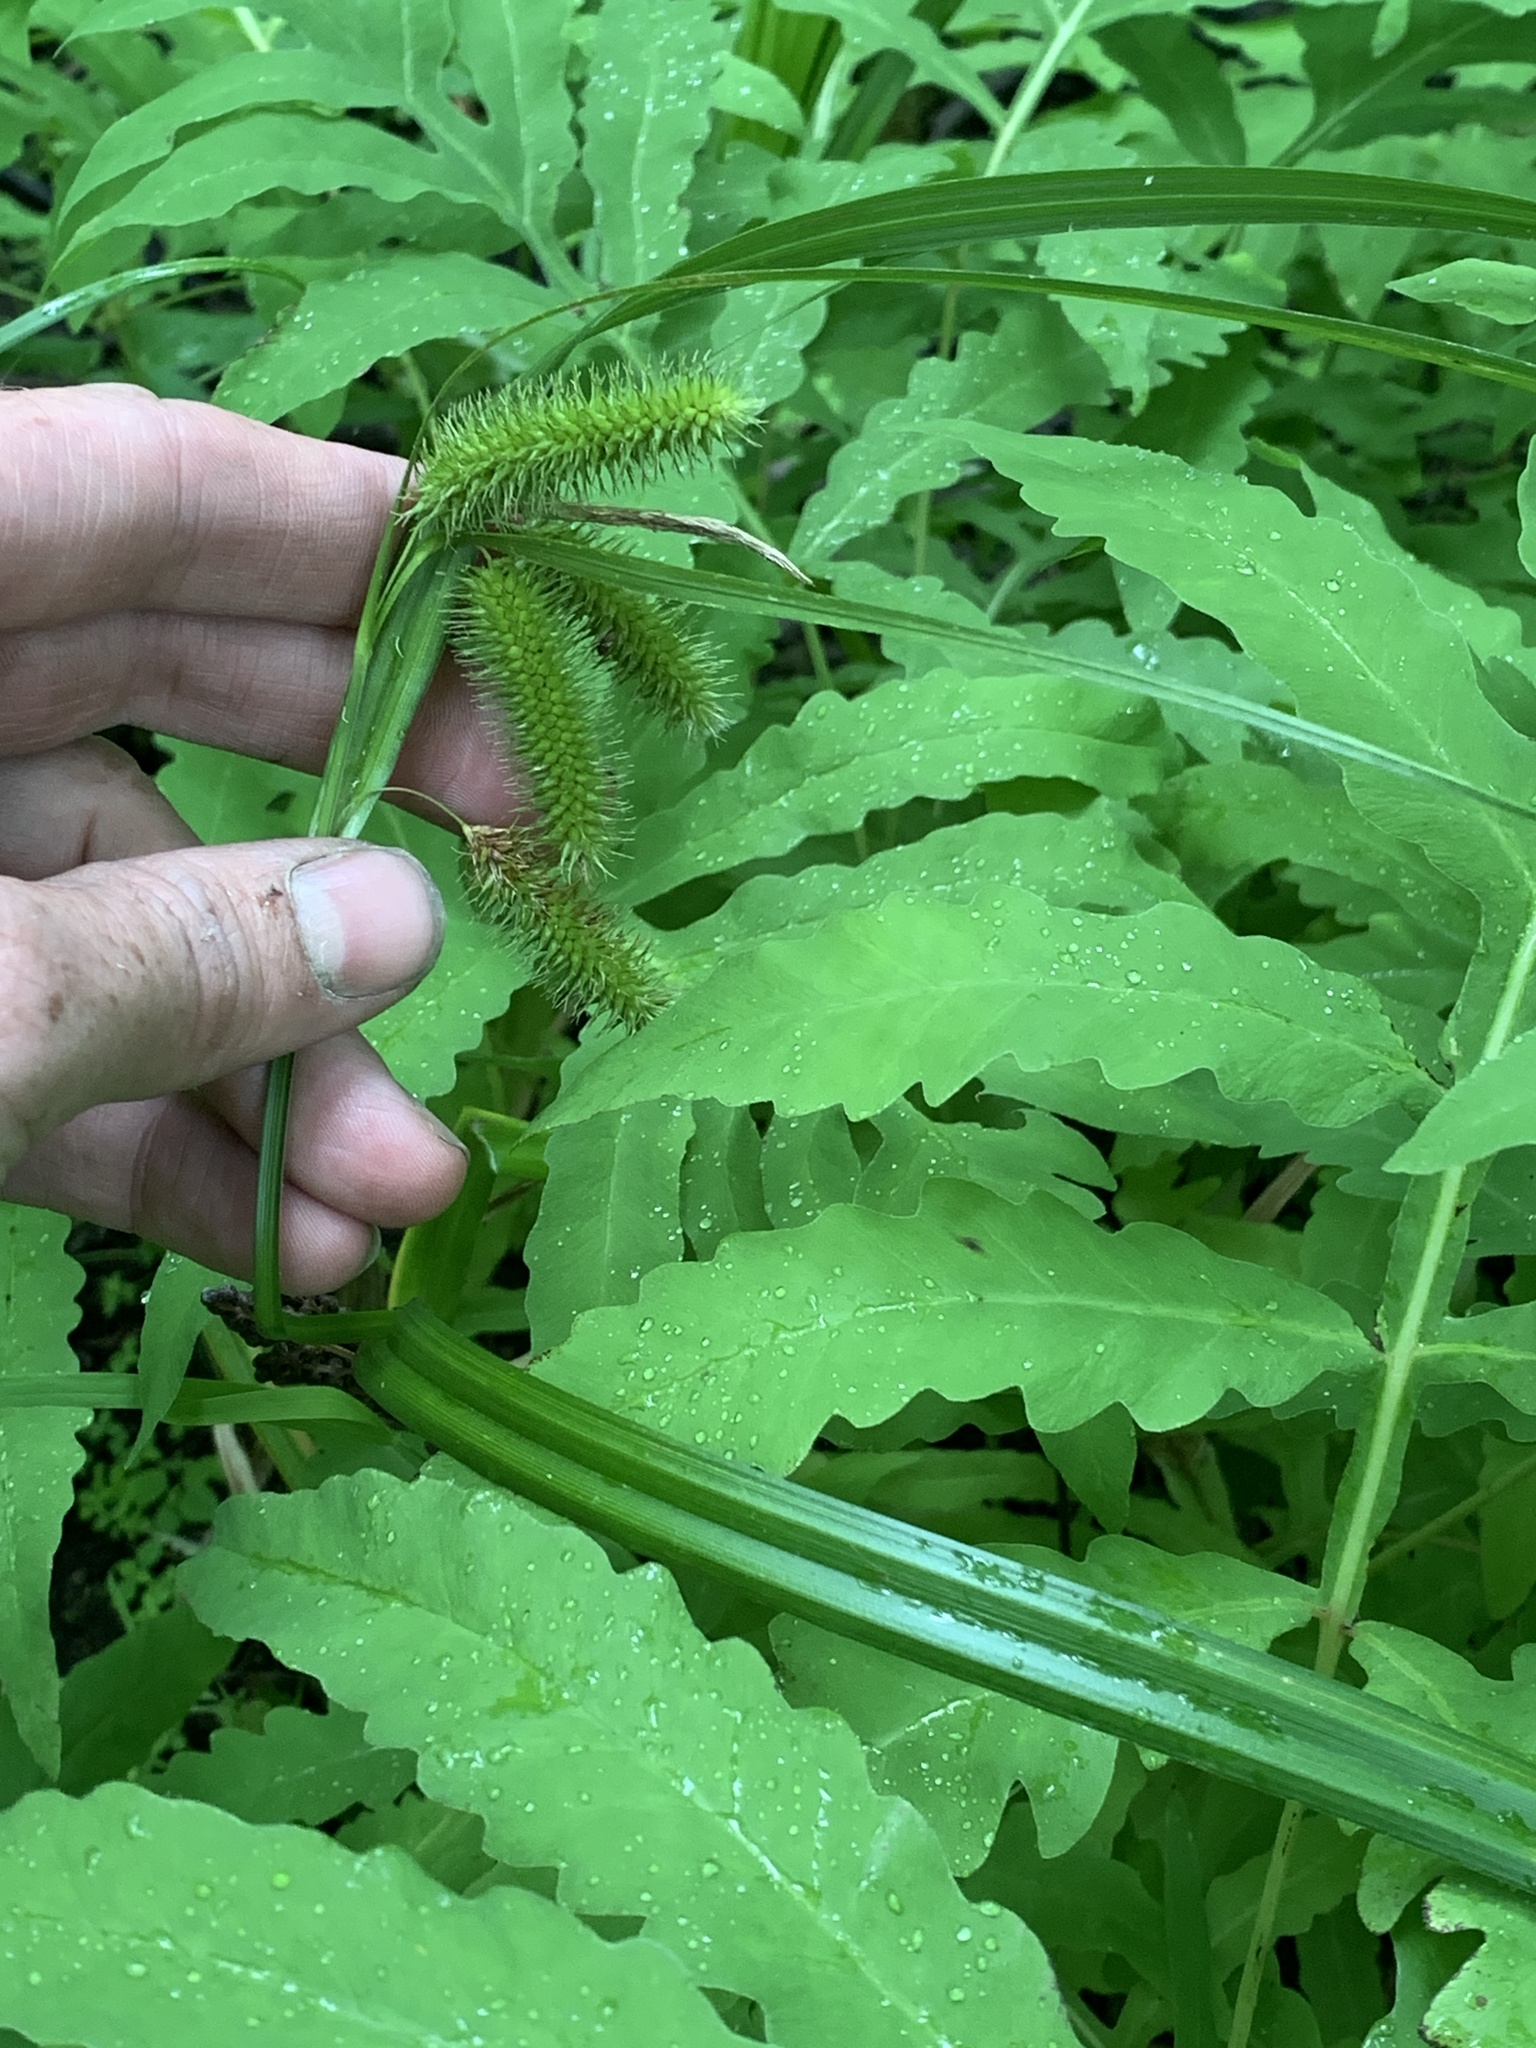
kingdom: Plantae
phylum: Tracheophyta
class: Liliopsida
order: Poales
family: Cyperaceae
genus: Carex
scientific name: Carex comosa
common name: Bristly sedge
